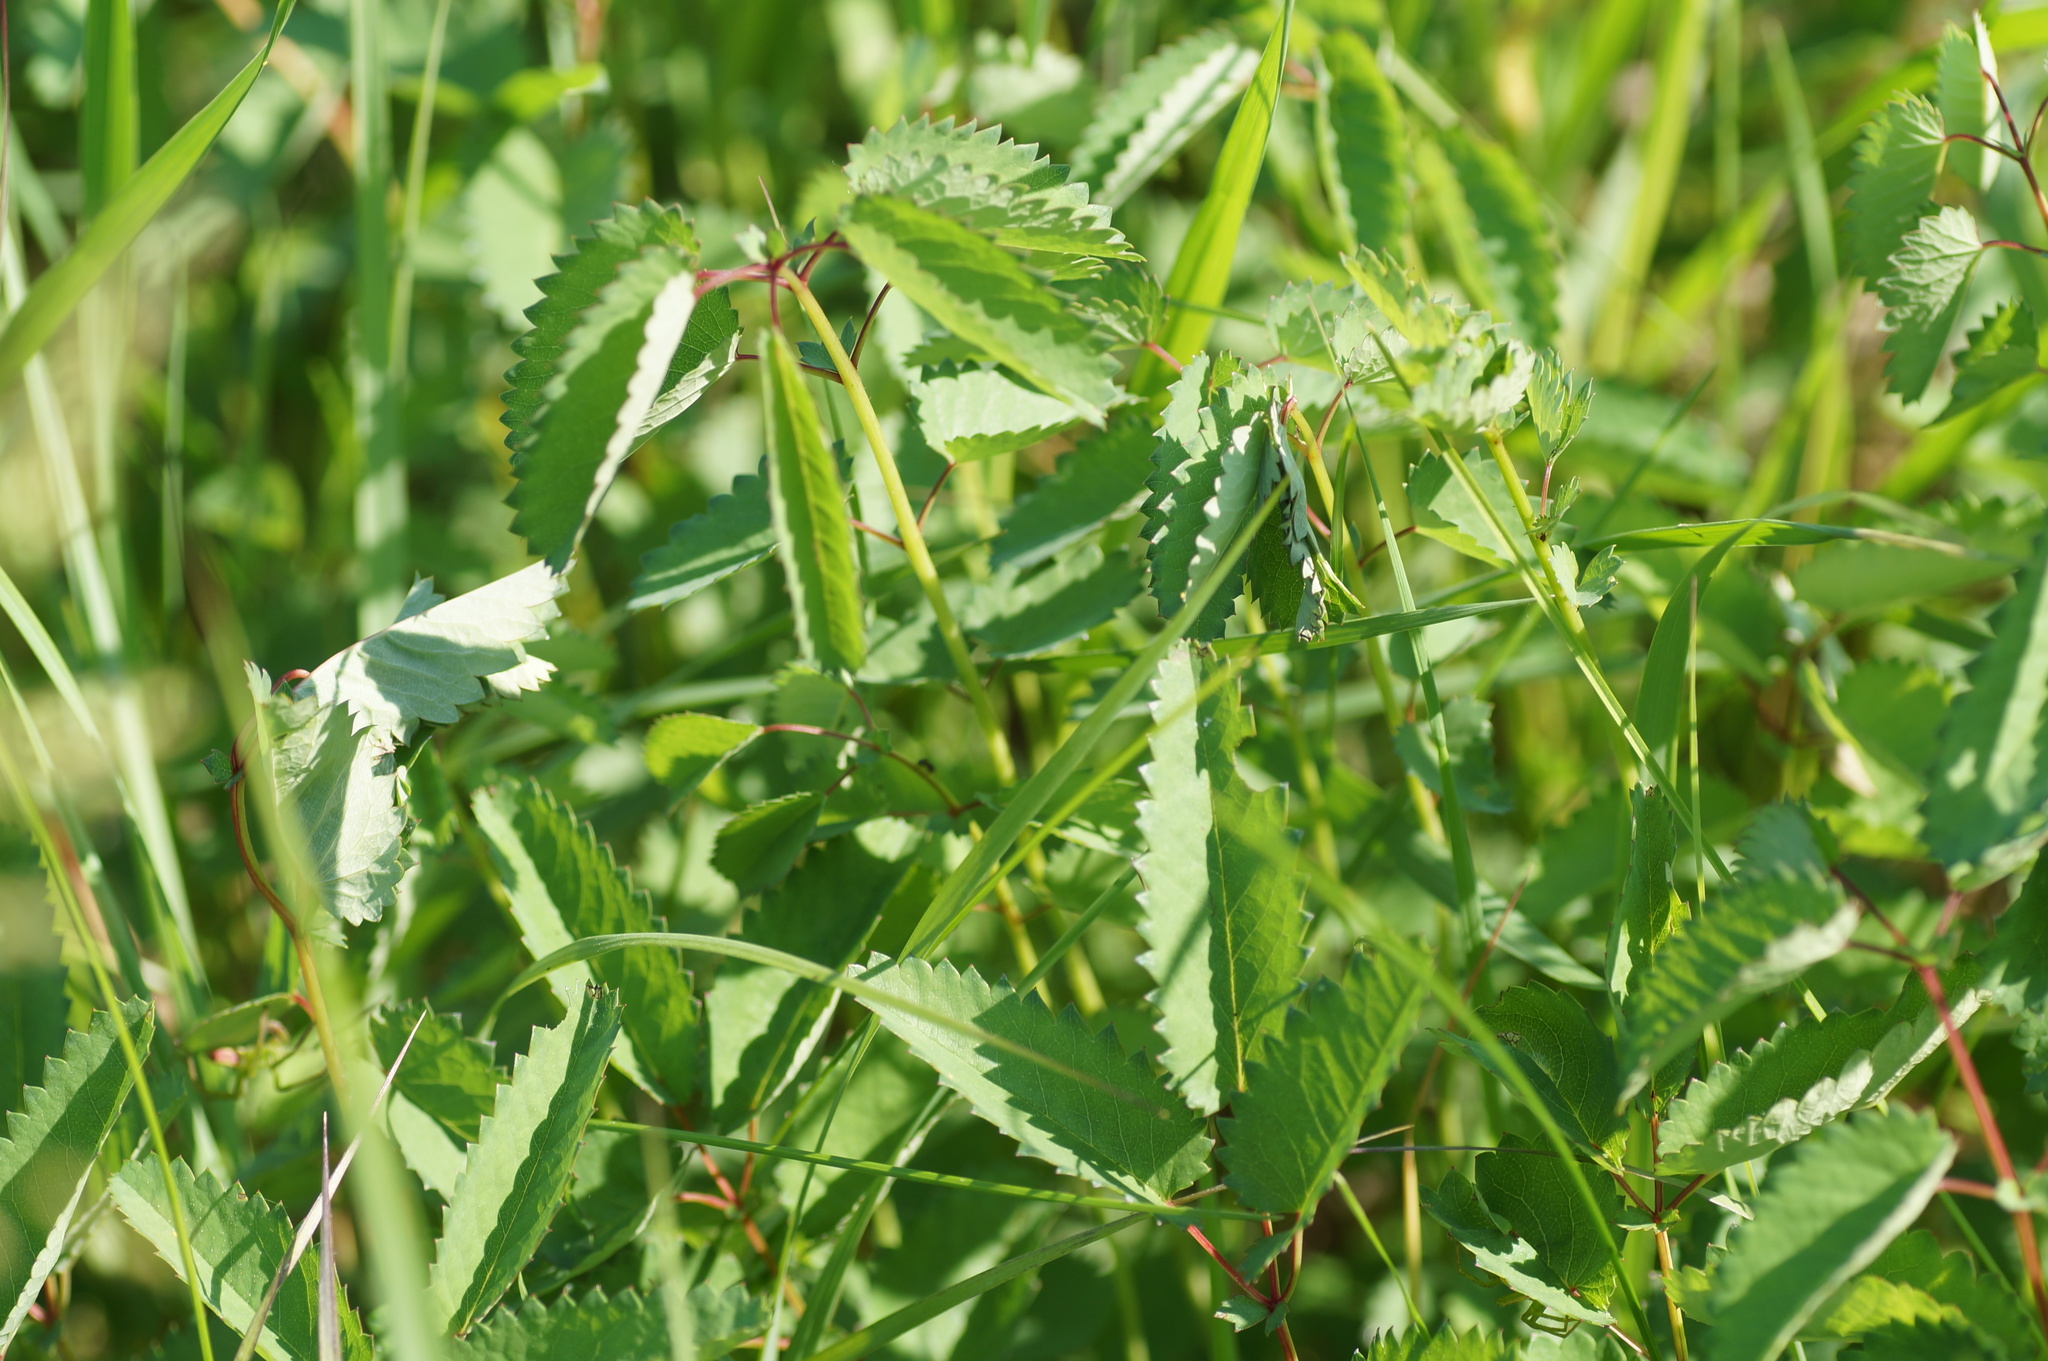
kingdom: Plantae
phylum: Tracheophyta
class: Magnoliopsida
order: Rosales
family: Rosaceae
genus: Sanguisorba
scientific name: Sanguisorba officinalis
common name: Great burnet
